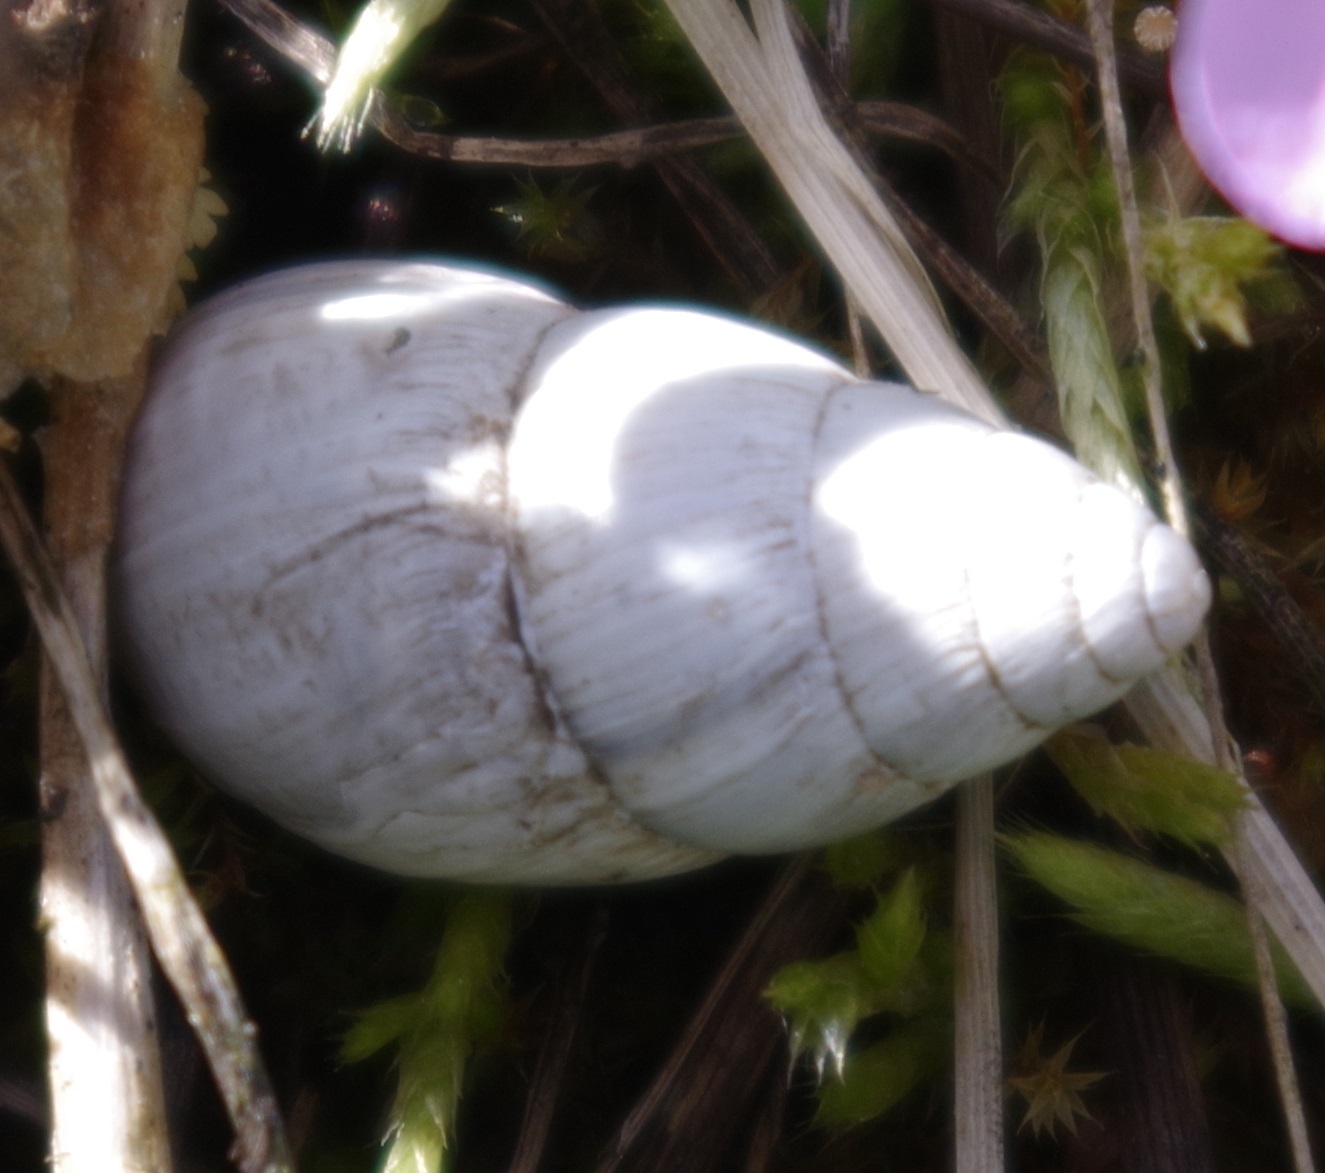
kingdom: Animalia
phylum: Mollusca
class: Gastropoda
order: Stylommatophora
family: Enidae
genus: Zebrina
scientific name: Zebrina detrita
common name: Large bulin
